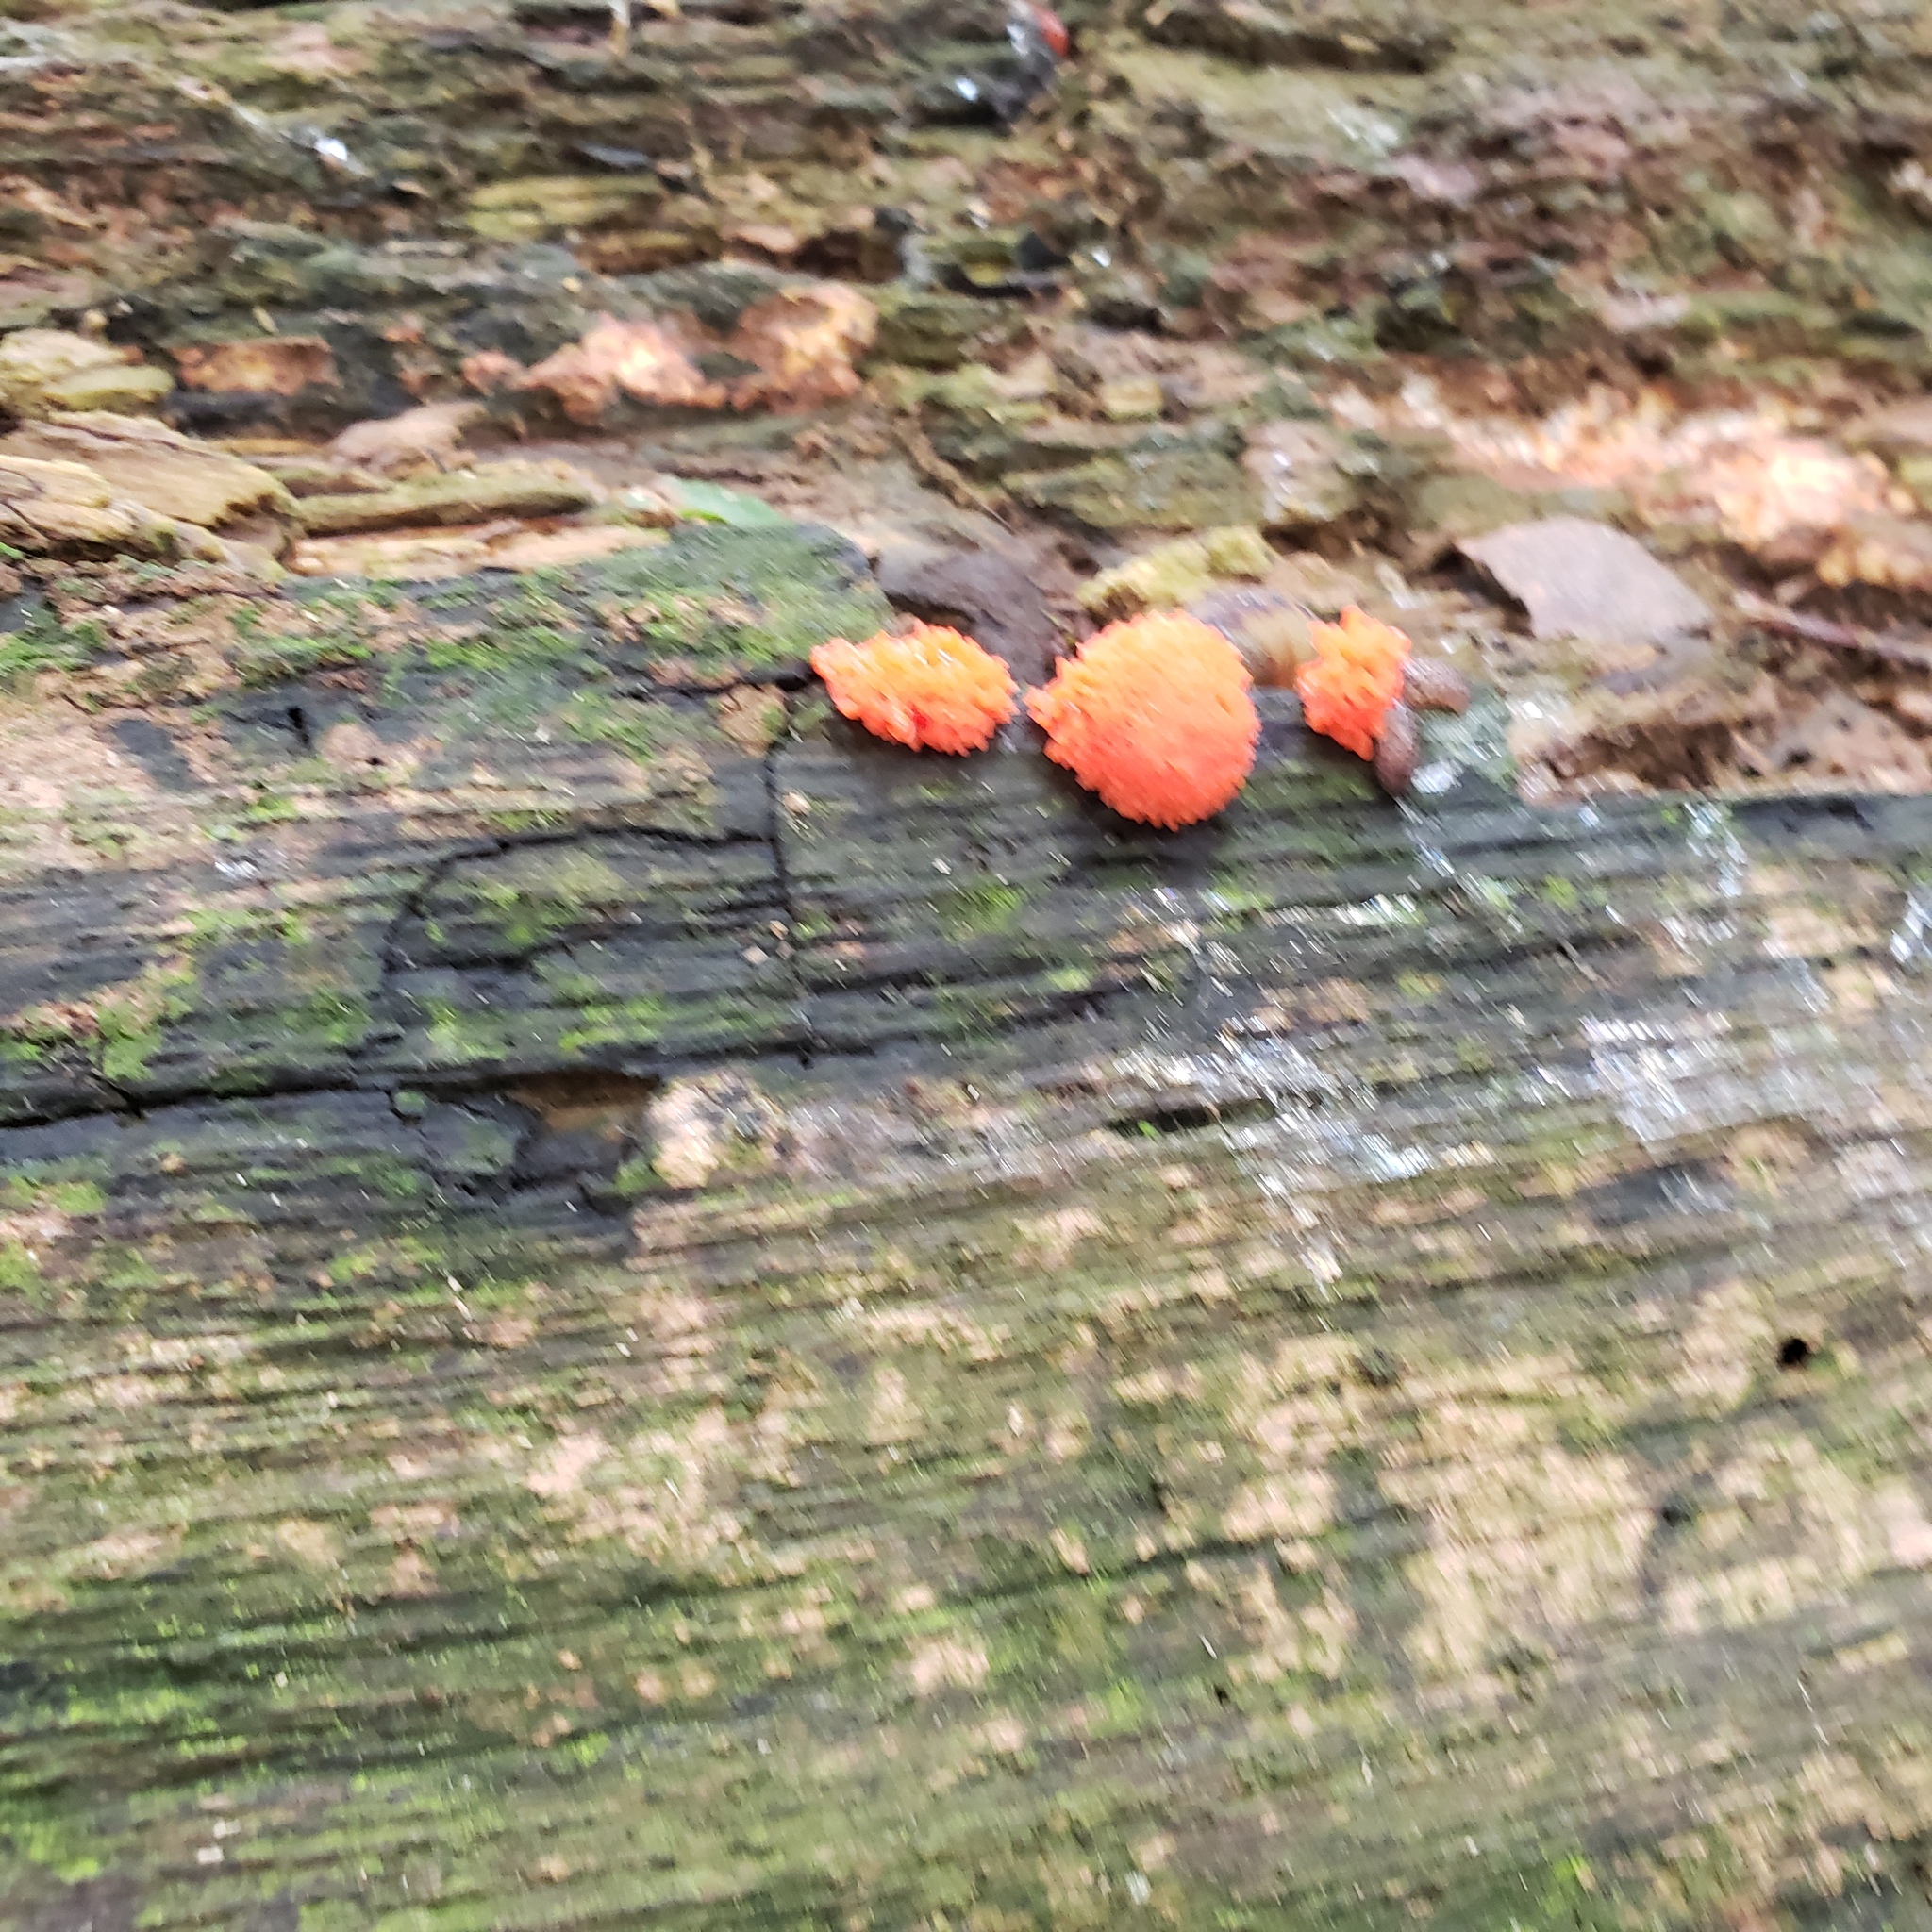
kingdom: Protozoa
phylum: Mycetozoa
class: Myxomycetes
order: Cribrariales
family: Tubiferaceae
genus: Tubifera
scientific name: Tubifera ferruginosa
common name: Red raspberry slime mold
